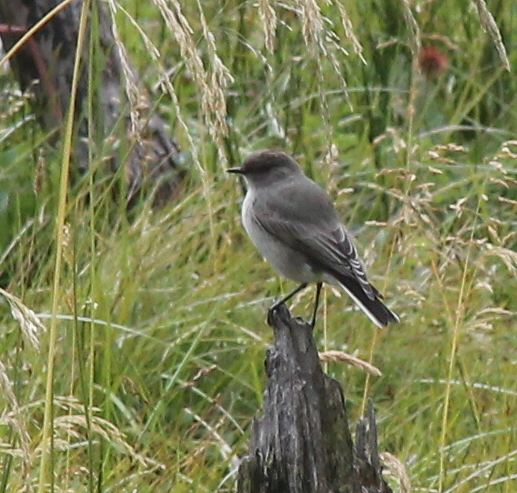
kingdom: Animalia
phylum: Chordata
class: Aves
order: Passeriformes
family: Tyrannidae
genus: Muscisaxicola
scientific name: Muscisaxicola maclovianus
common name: Dark-faced ground tyrant
